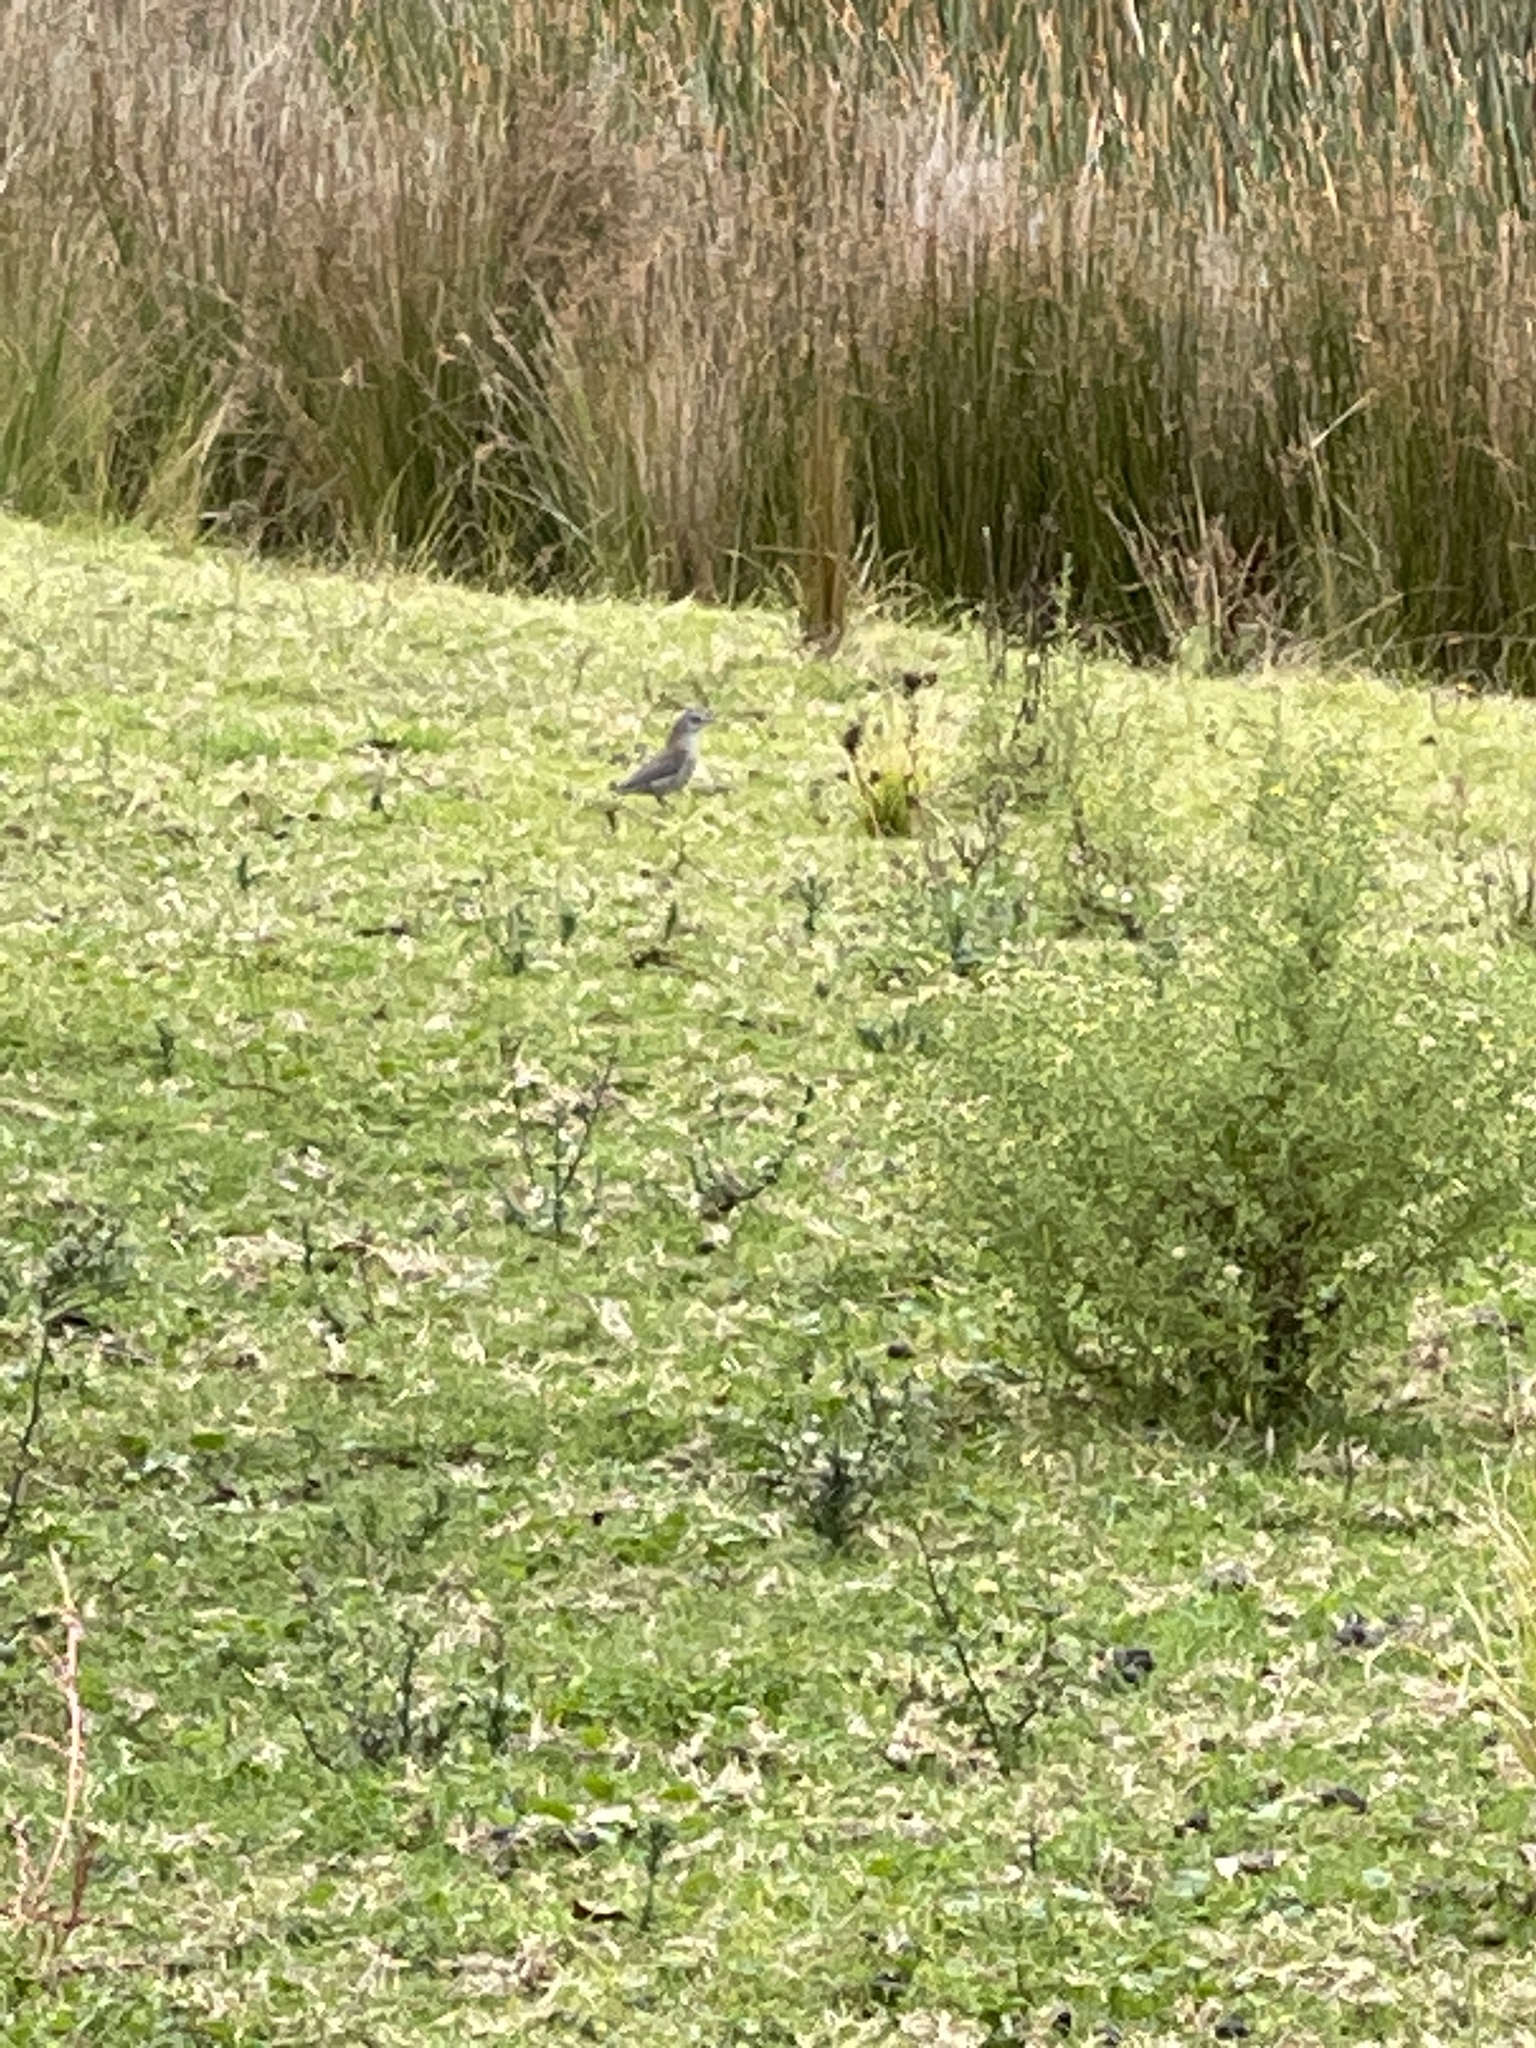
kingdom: Animalia
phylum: Chordata
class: Aves
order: Passeriformes
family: Pachycephalidae
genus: Colluricincla
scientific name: Colluricincla harmonica
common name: Grey shrikethrush
